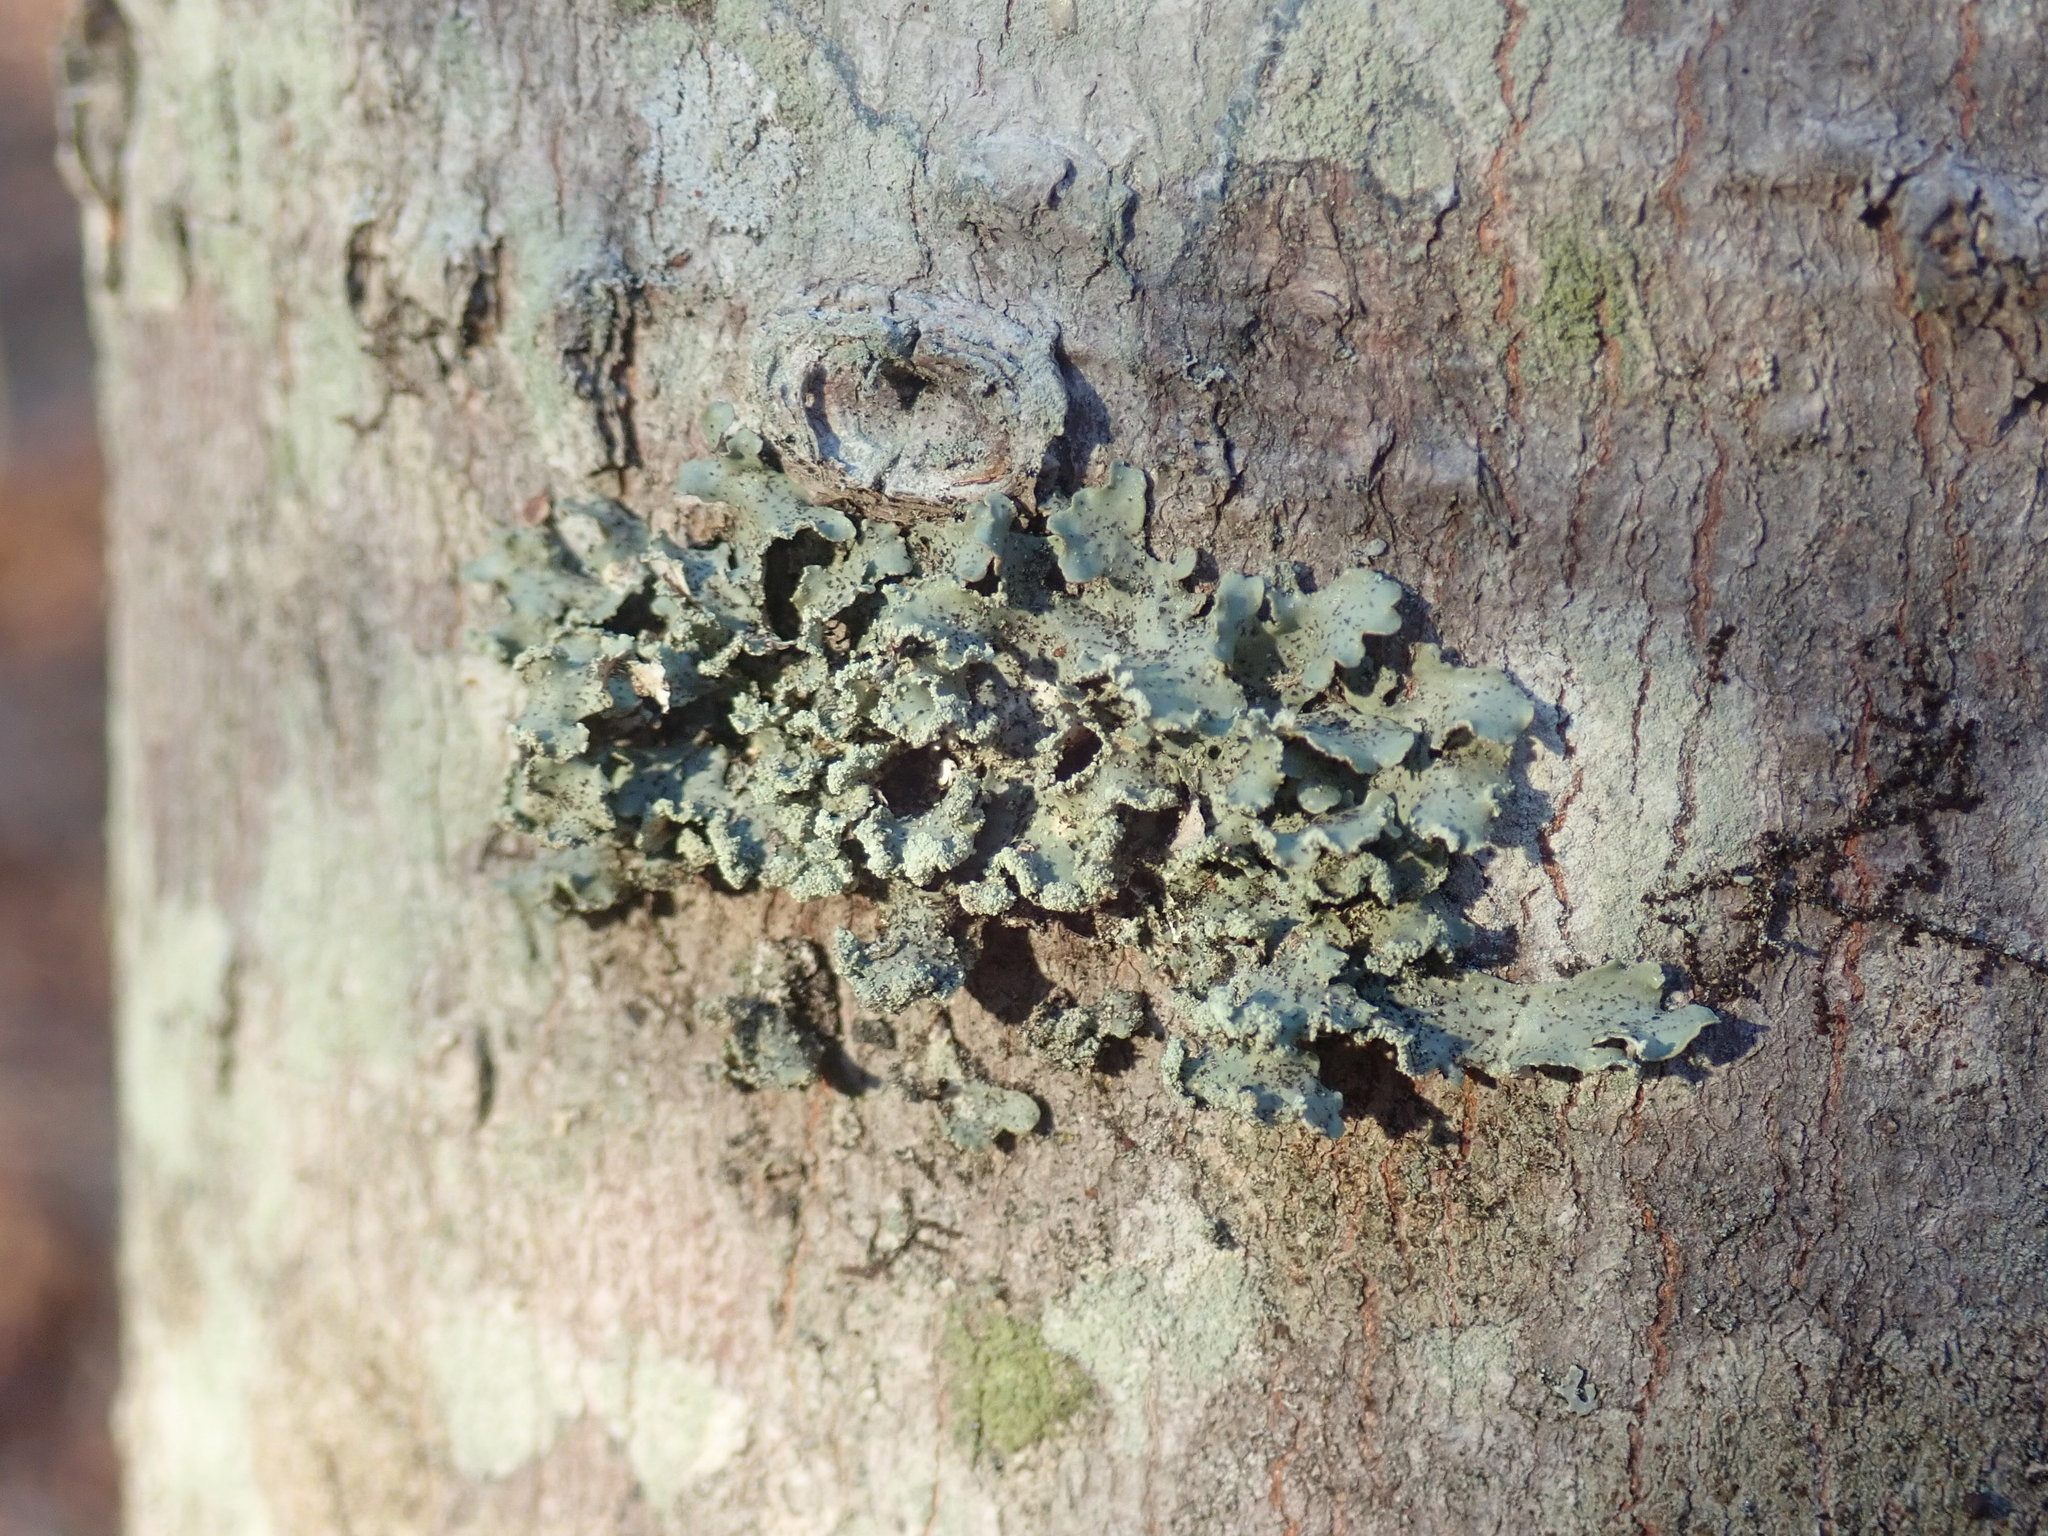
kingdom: Fungi
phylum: Ascomycota
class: Lecanoromycetes
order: Lecanorales
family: Parmeliaceae
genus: Usnocetraria
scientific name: Usnocetraria oakesiana
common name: Yellow ribbon lichen
